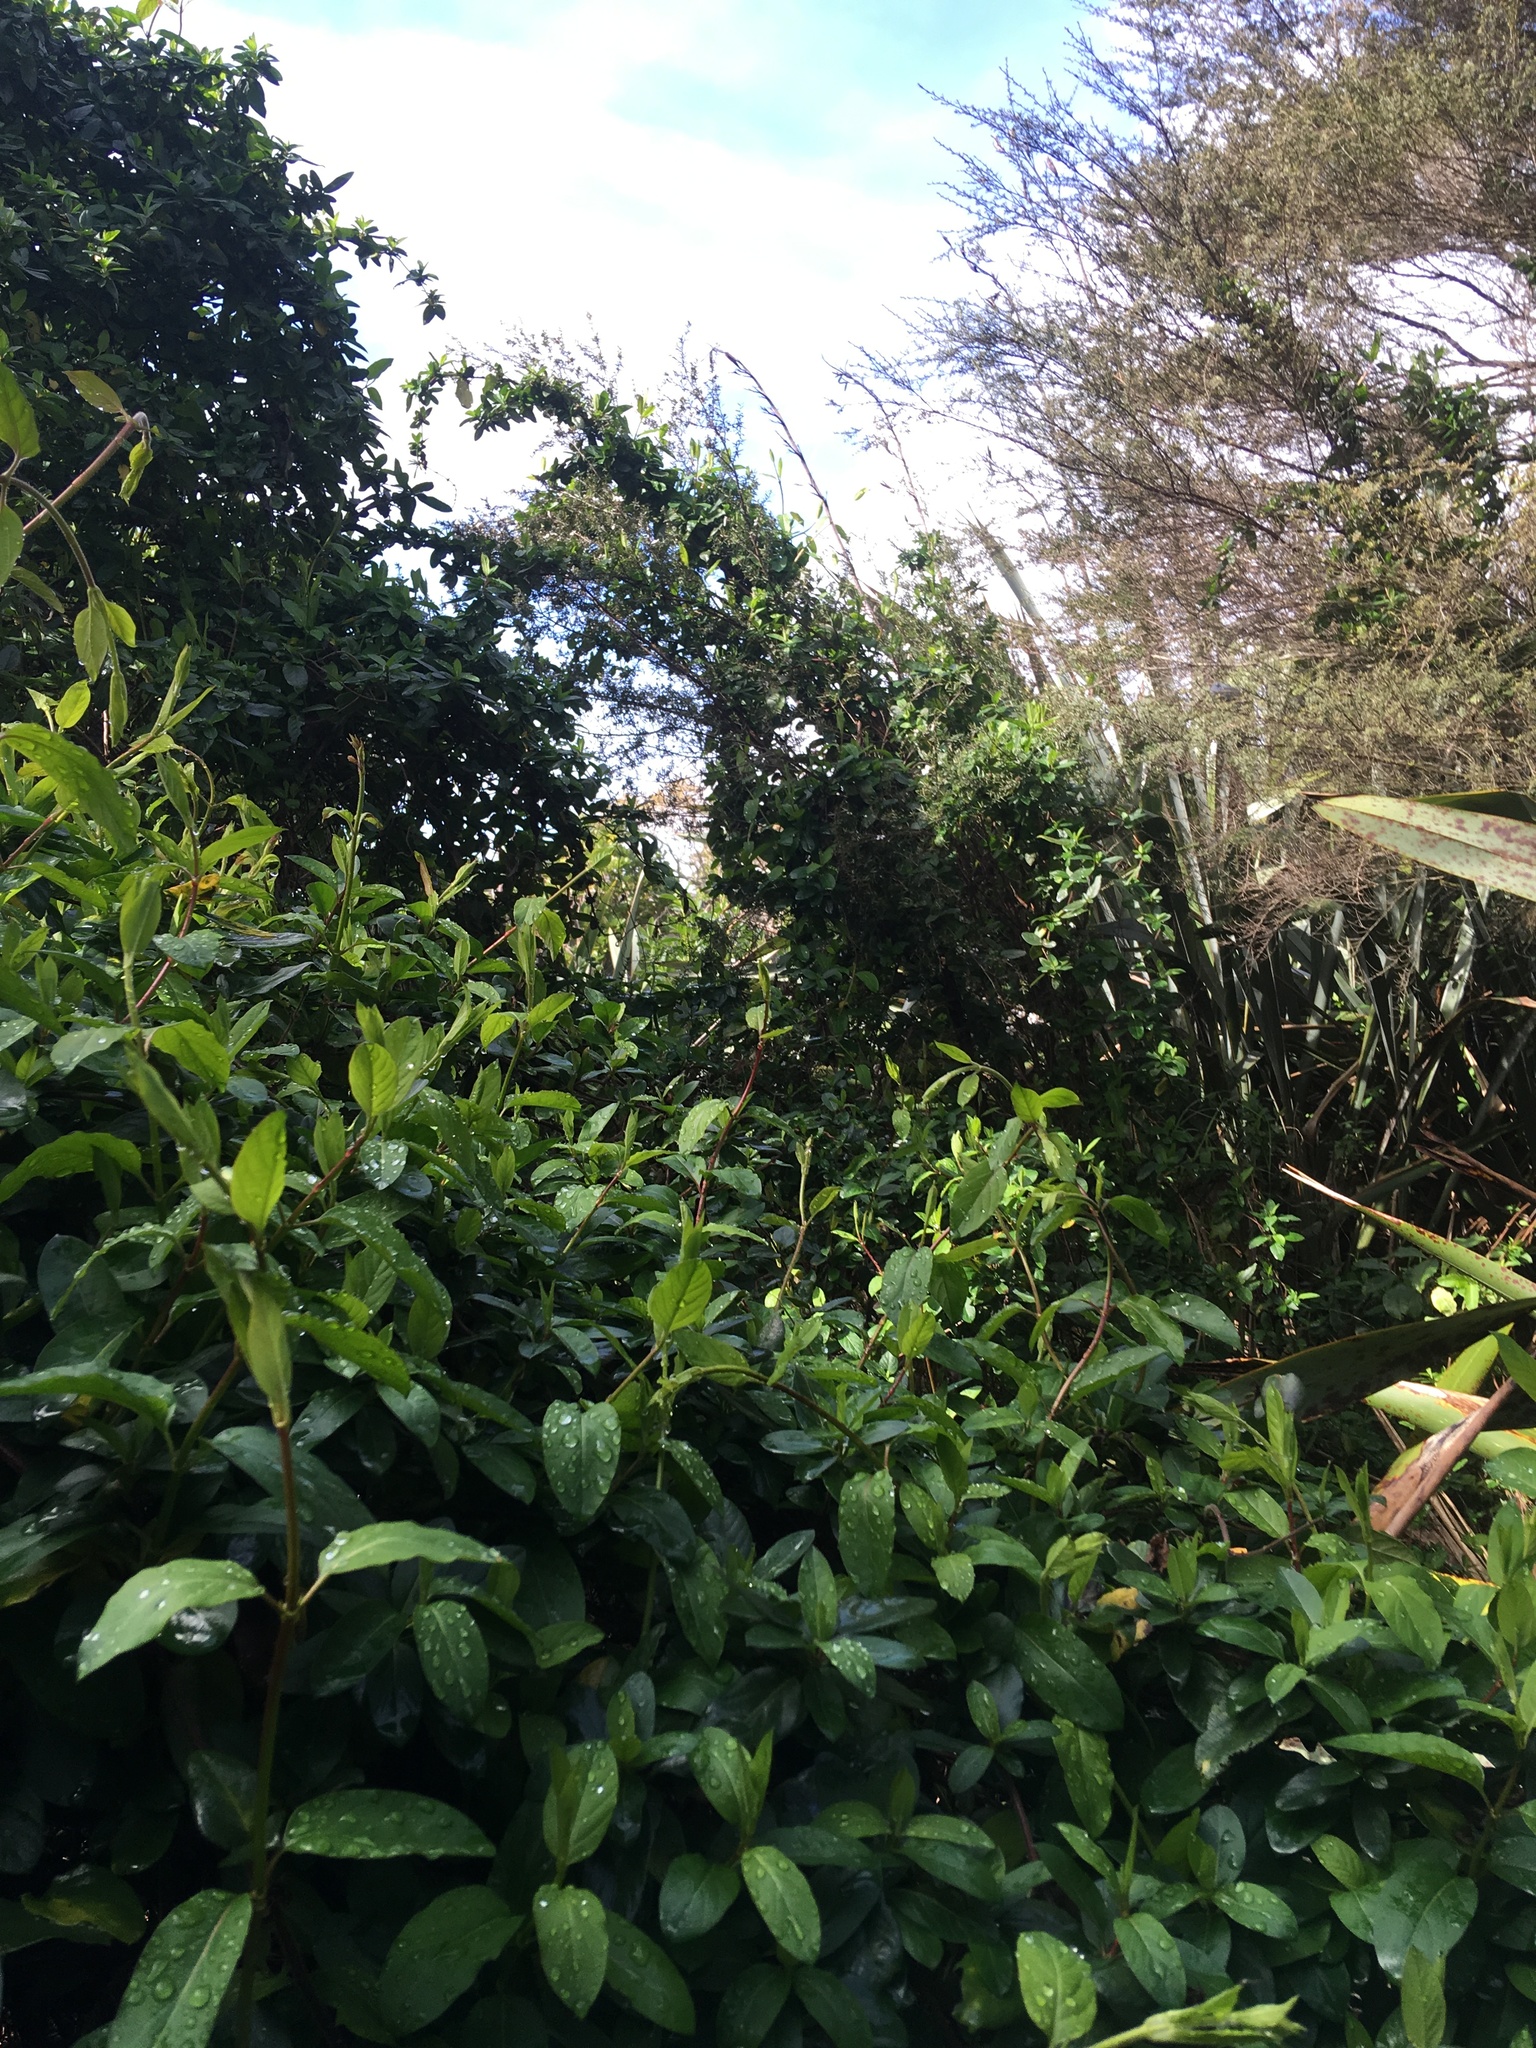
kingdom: Plantae
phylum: Tracheophyta
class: Magnoliopsida
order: Dipsacales
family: Caprifoliaceae
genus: Lonicera
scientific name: Lonicera japonica
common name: Japanese honeysuckle
